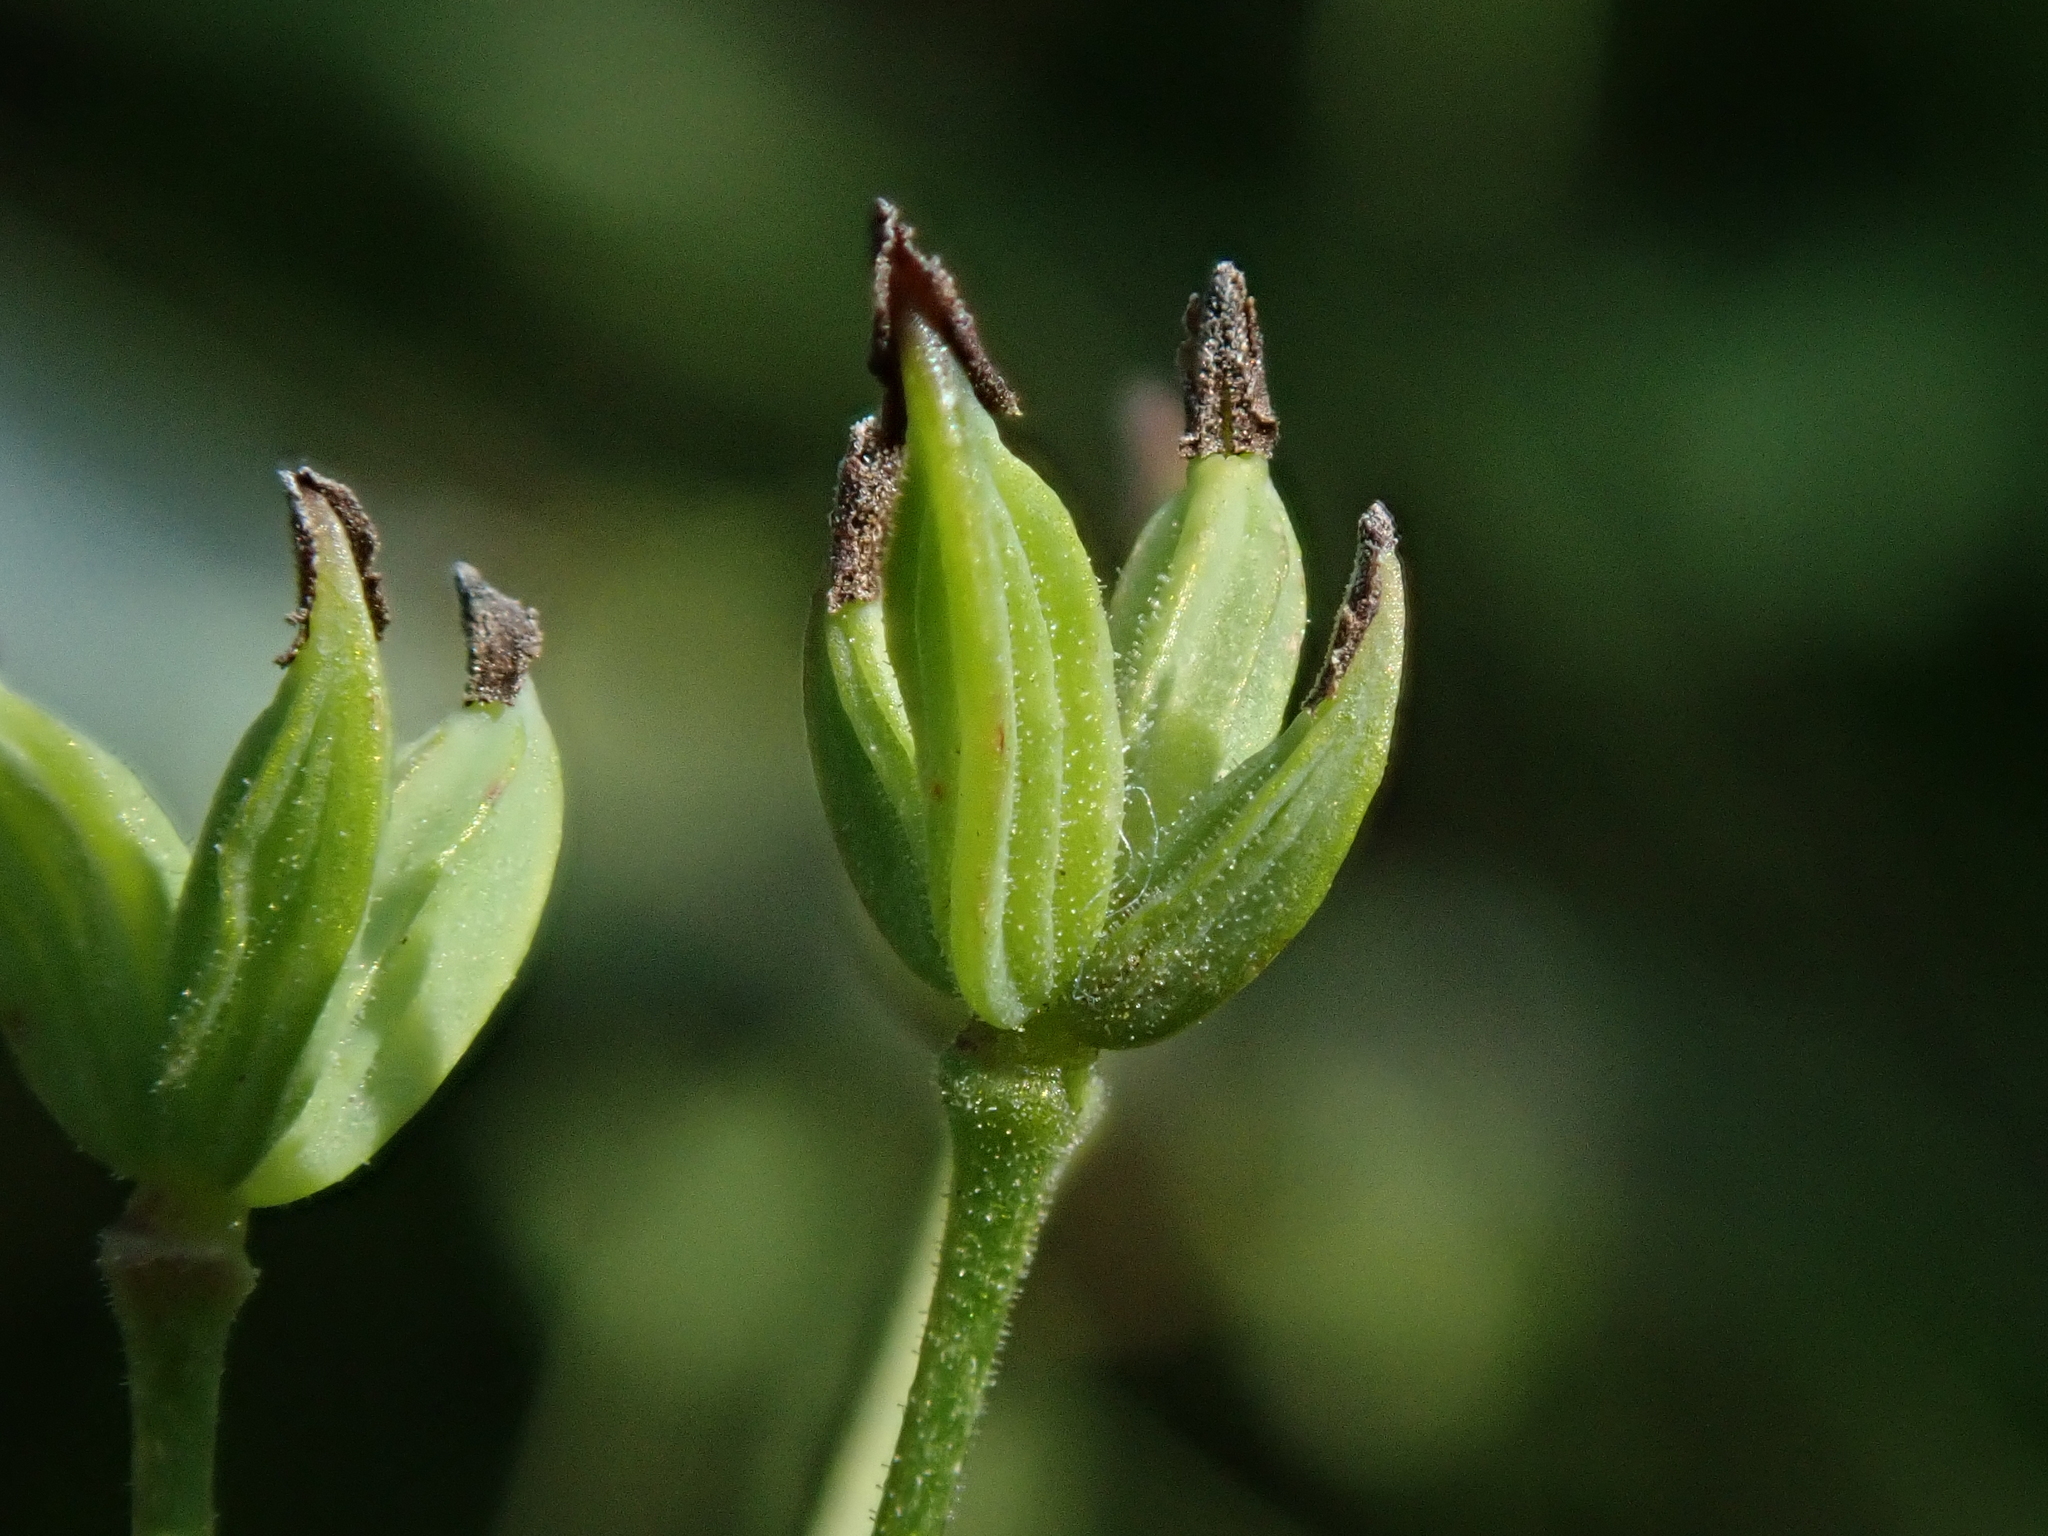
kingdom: Plantae
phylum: Tracheophyta
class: Magnoliopsida
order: Ranunculales
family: Ranunculaceae
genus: Thalictrum
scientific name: Thalictrum minus
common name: Lesser meadow-rue
